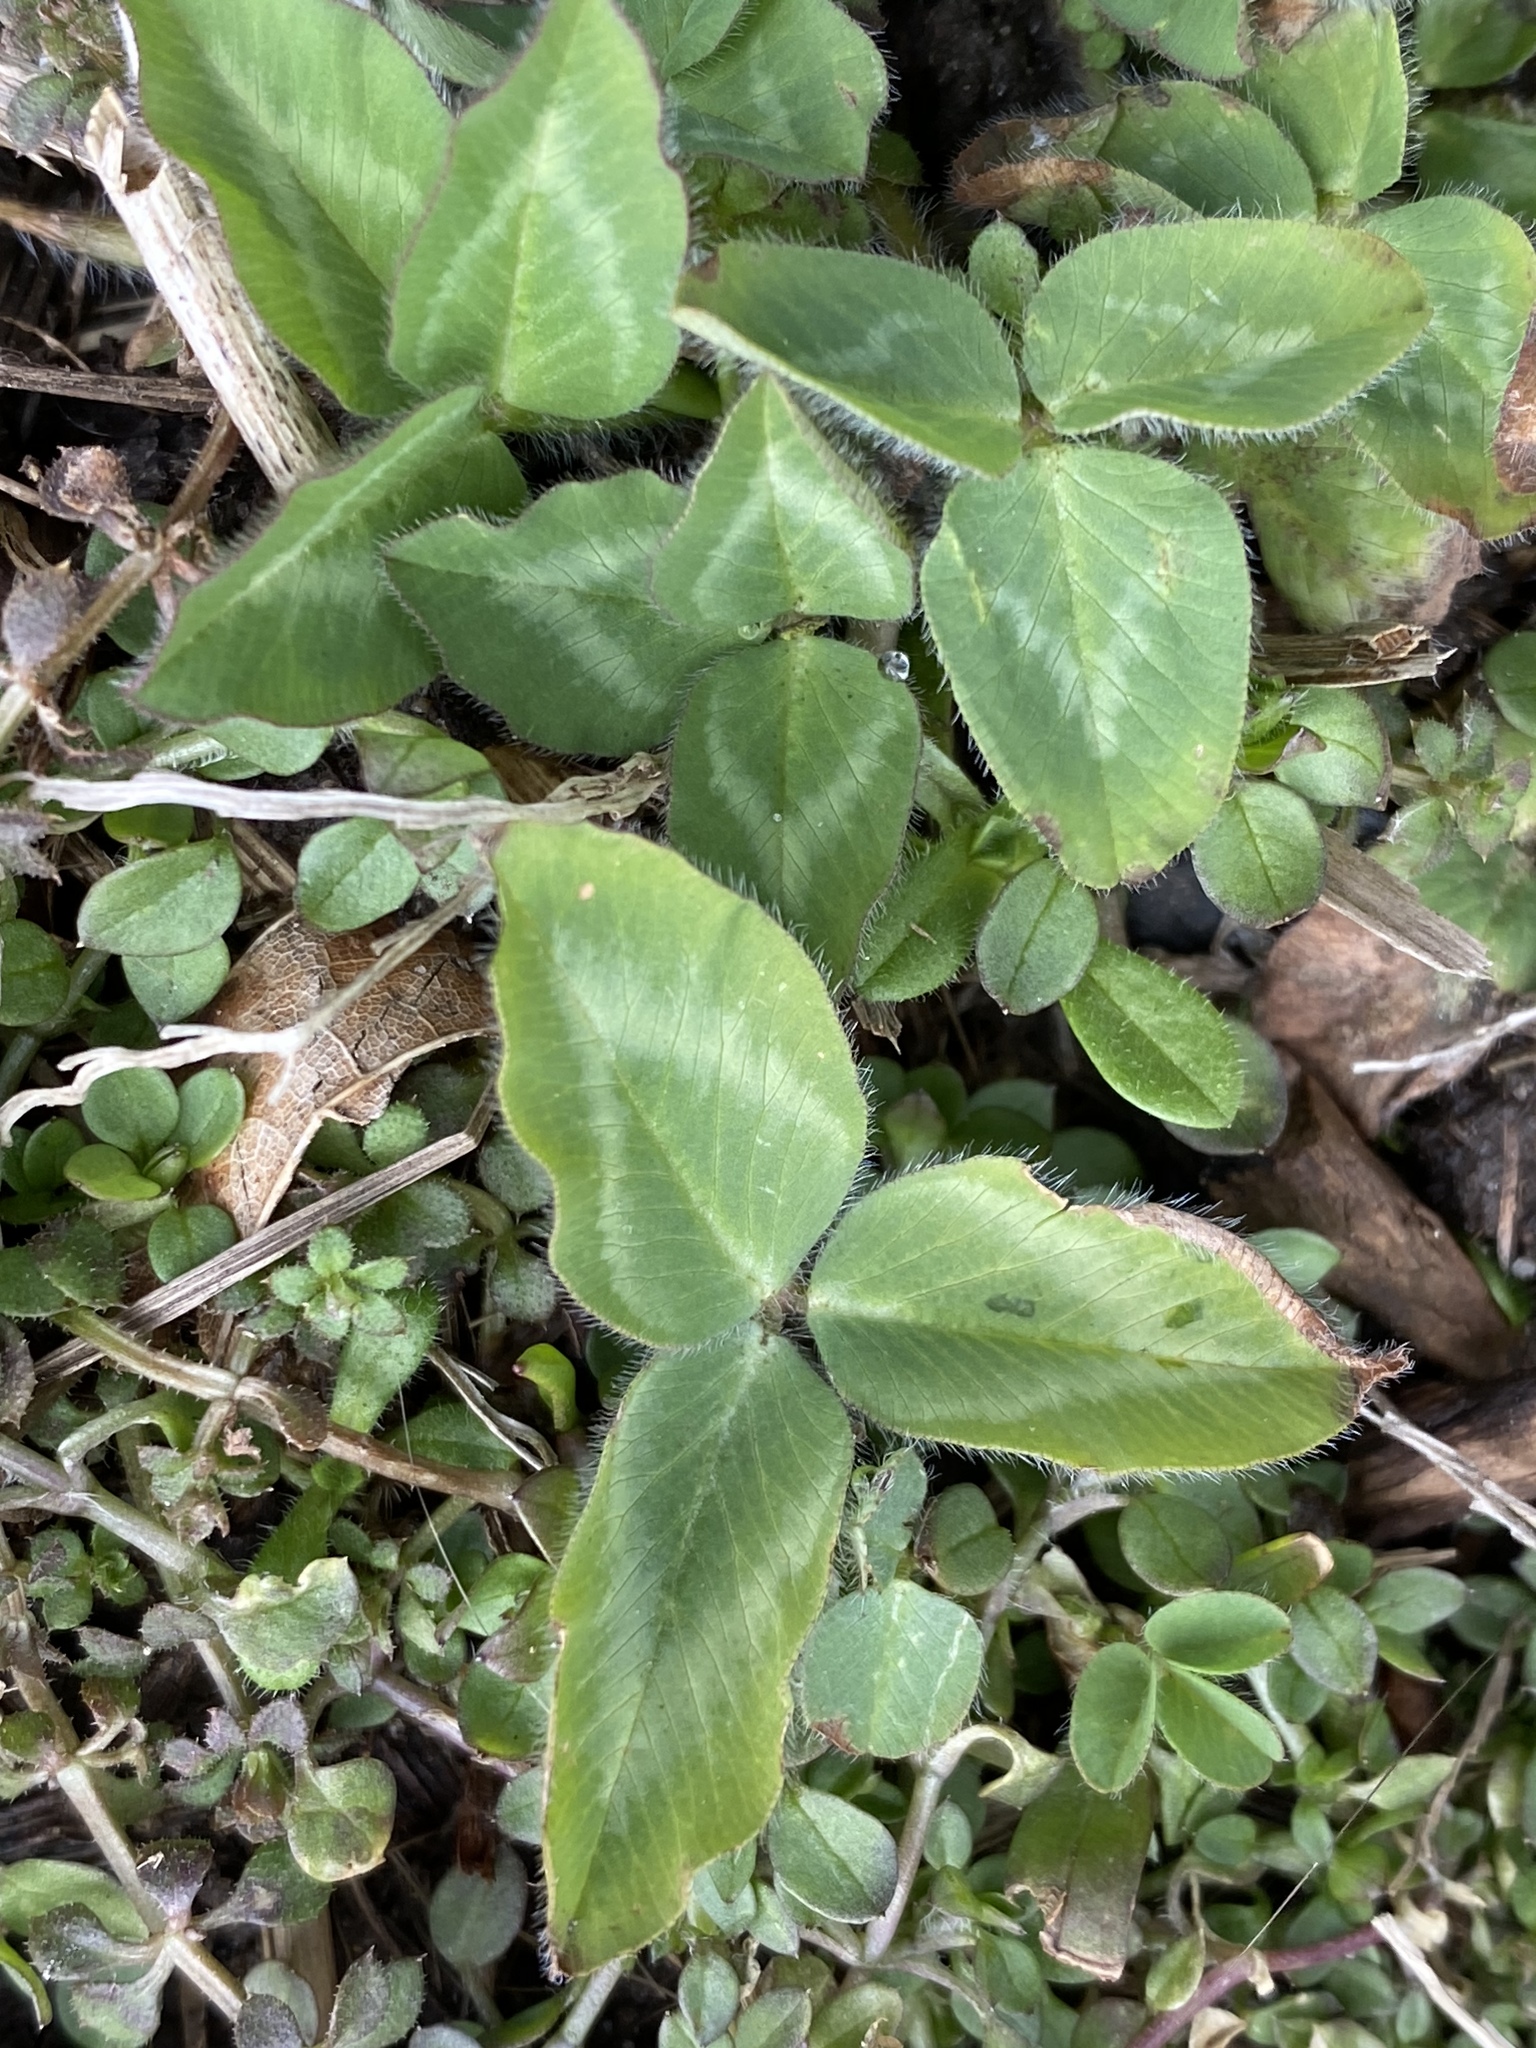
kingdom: Plantae
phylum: Tracheophyta
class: Magnoliopsida
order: Fabales
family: Fabaceae
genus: Trifolium
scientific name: Trifolium pratense
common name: Red clover
